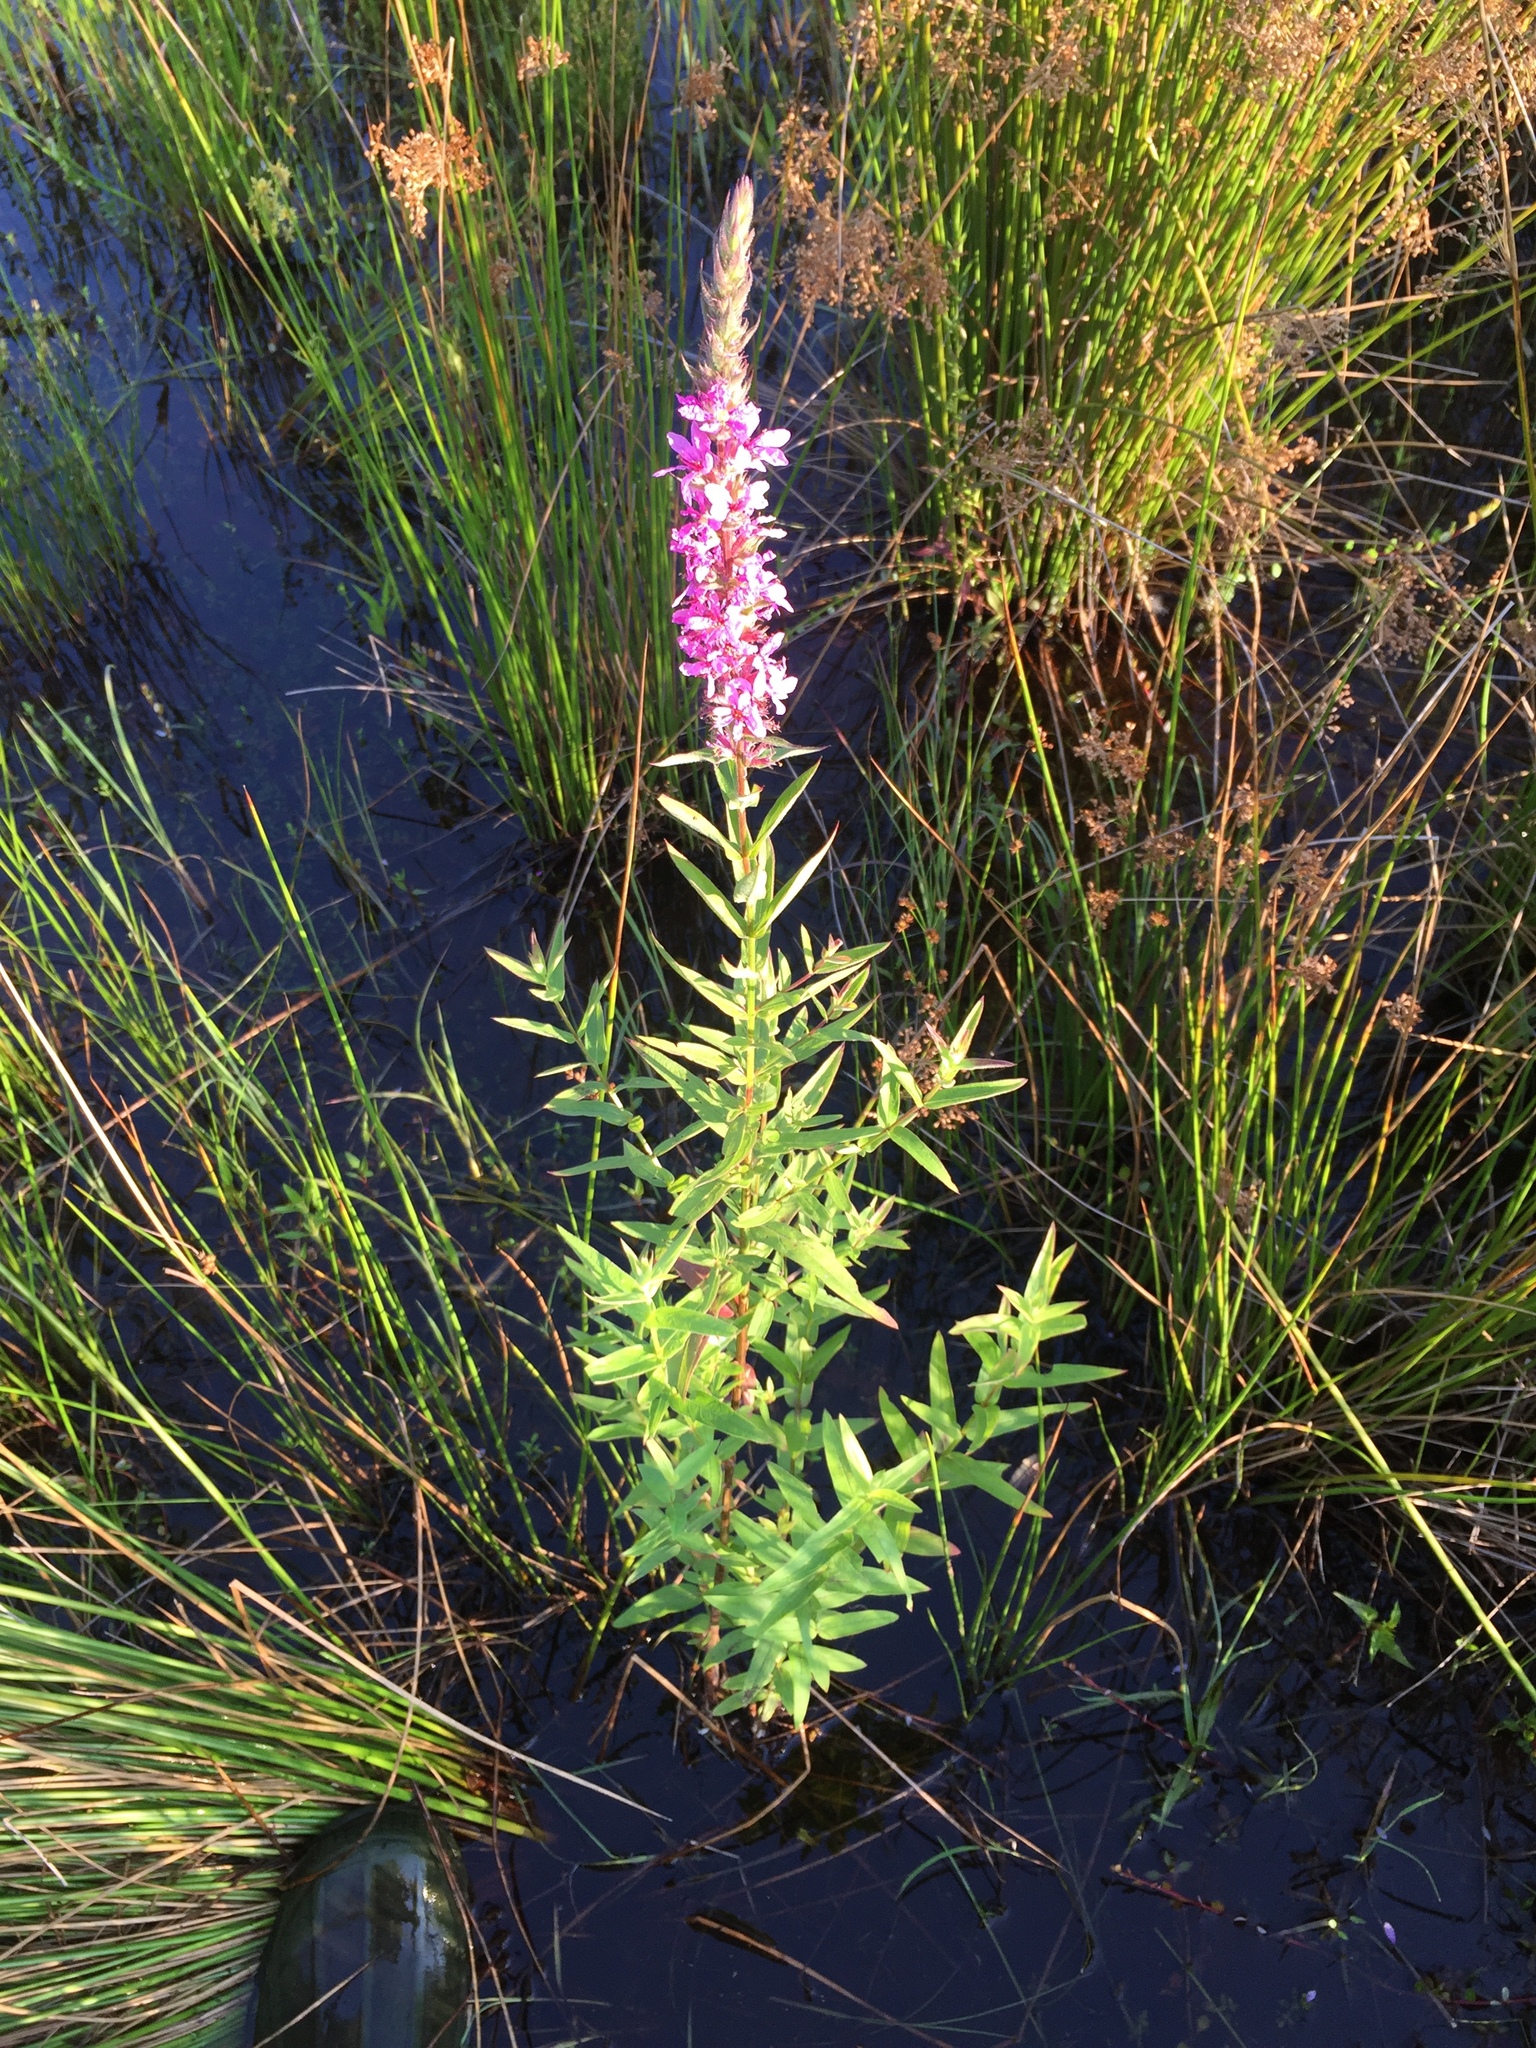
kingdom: Plantae
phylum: Tracheophyta
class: Magnoliopsida
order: Myrtales
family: Lythraceae
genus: Lythrum
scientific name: Lythrum salicaria
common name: Purple loosestrife
